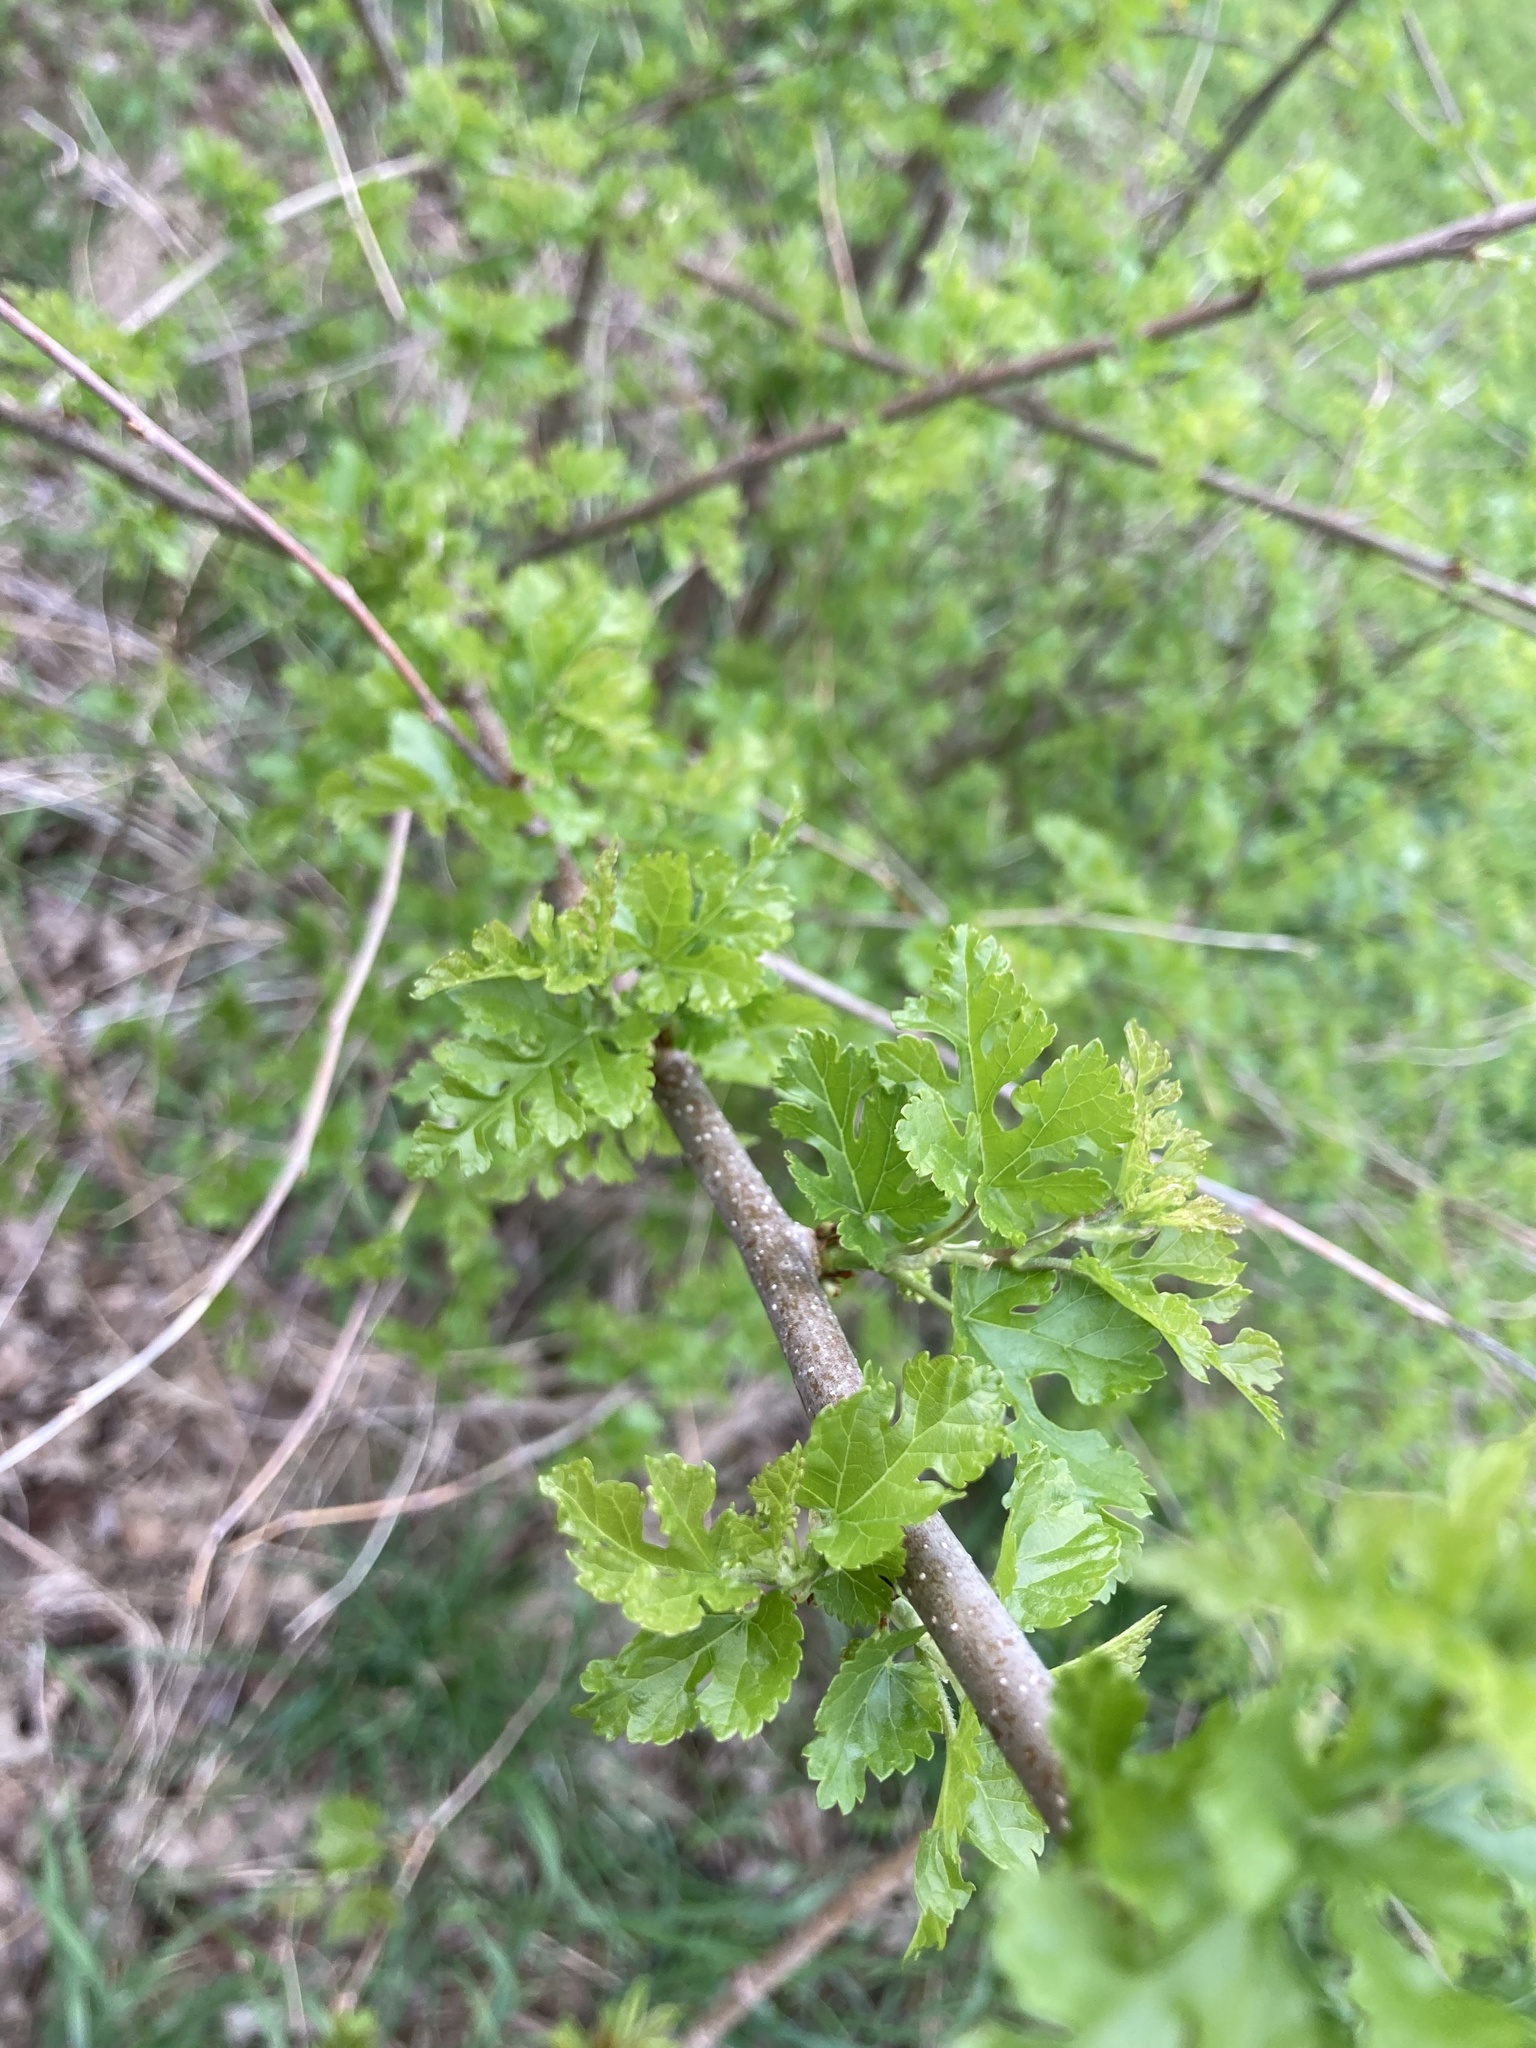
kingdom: Plantae
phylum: Tracheophyta
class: Magnoliopsida
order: Rosales
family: Moraceae
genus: Morus
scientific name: Morus alba
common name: White mulberry
